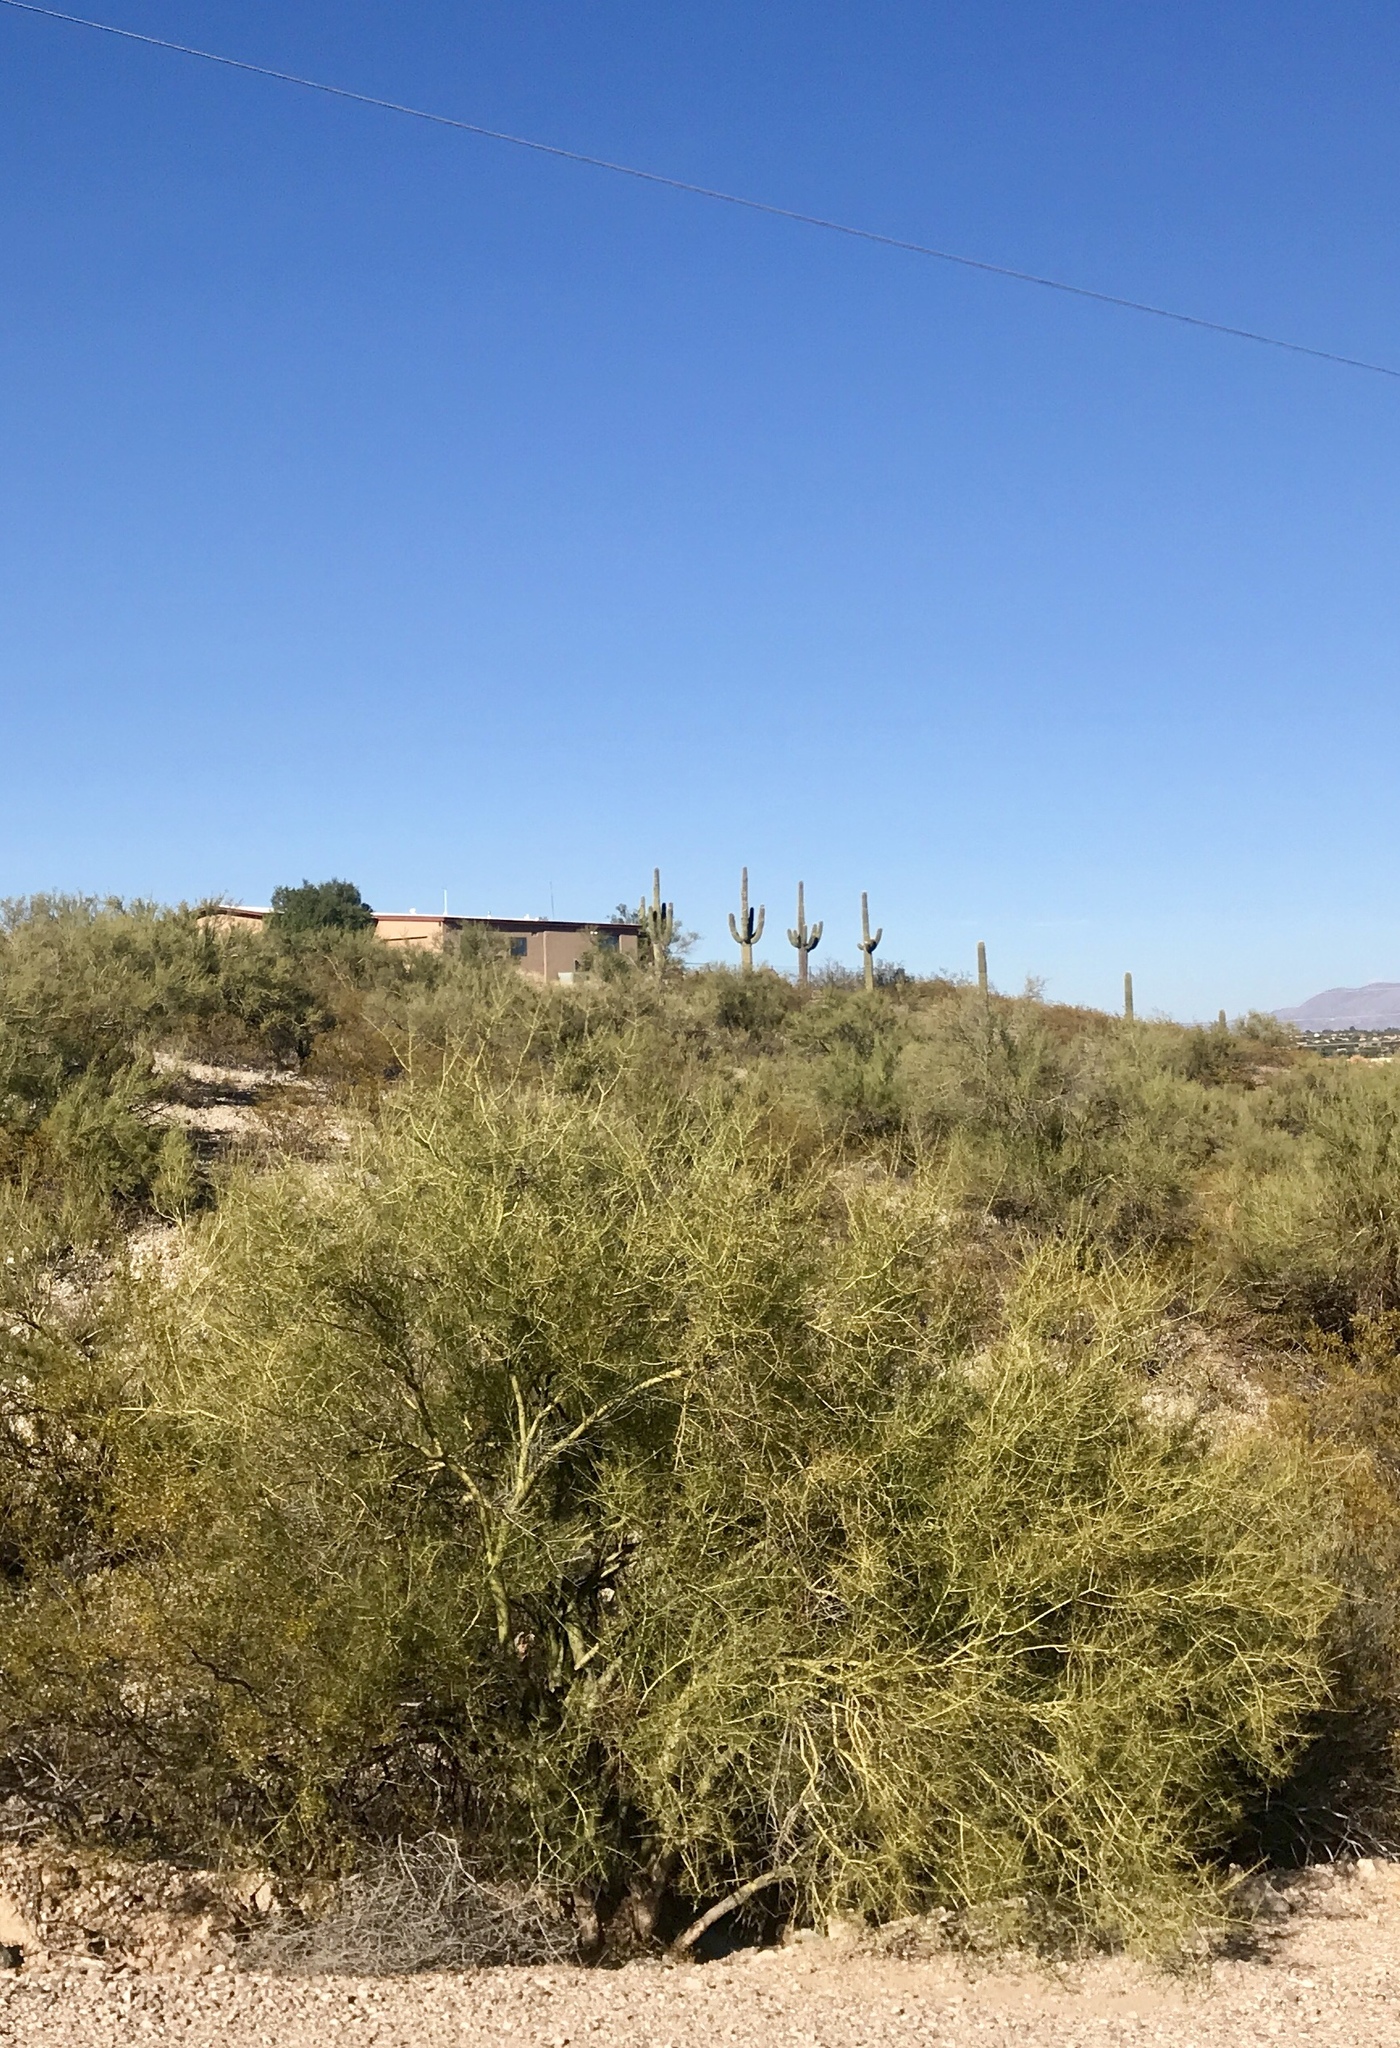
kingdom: Plantae
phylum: Tracheophyta
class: Magnoliopsida
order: Fabales
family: Fabaceae
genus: Parkinsonia
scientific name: Parkinsonia florida
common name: Blue paloverde
